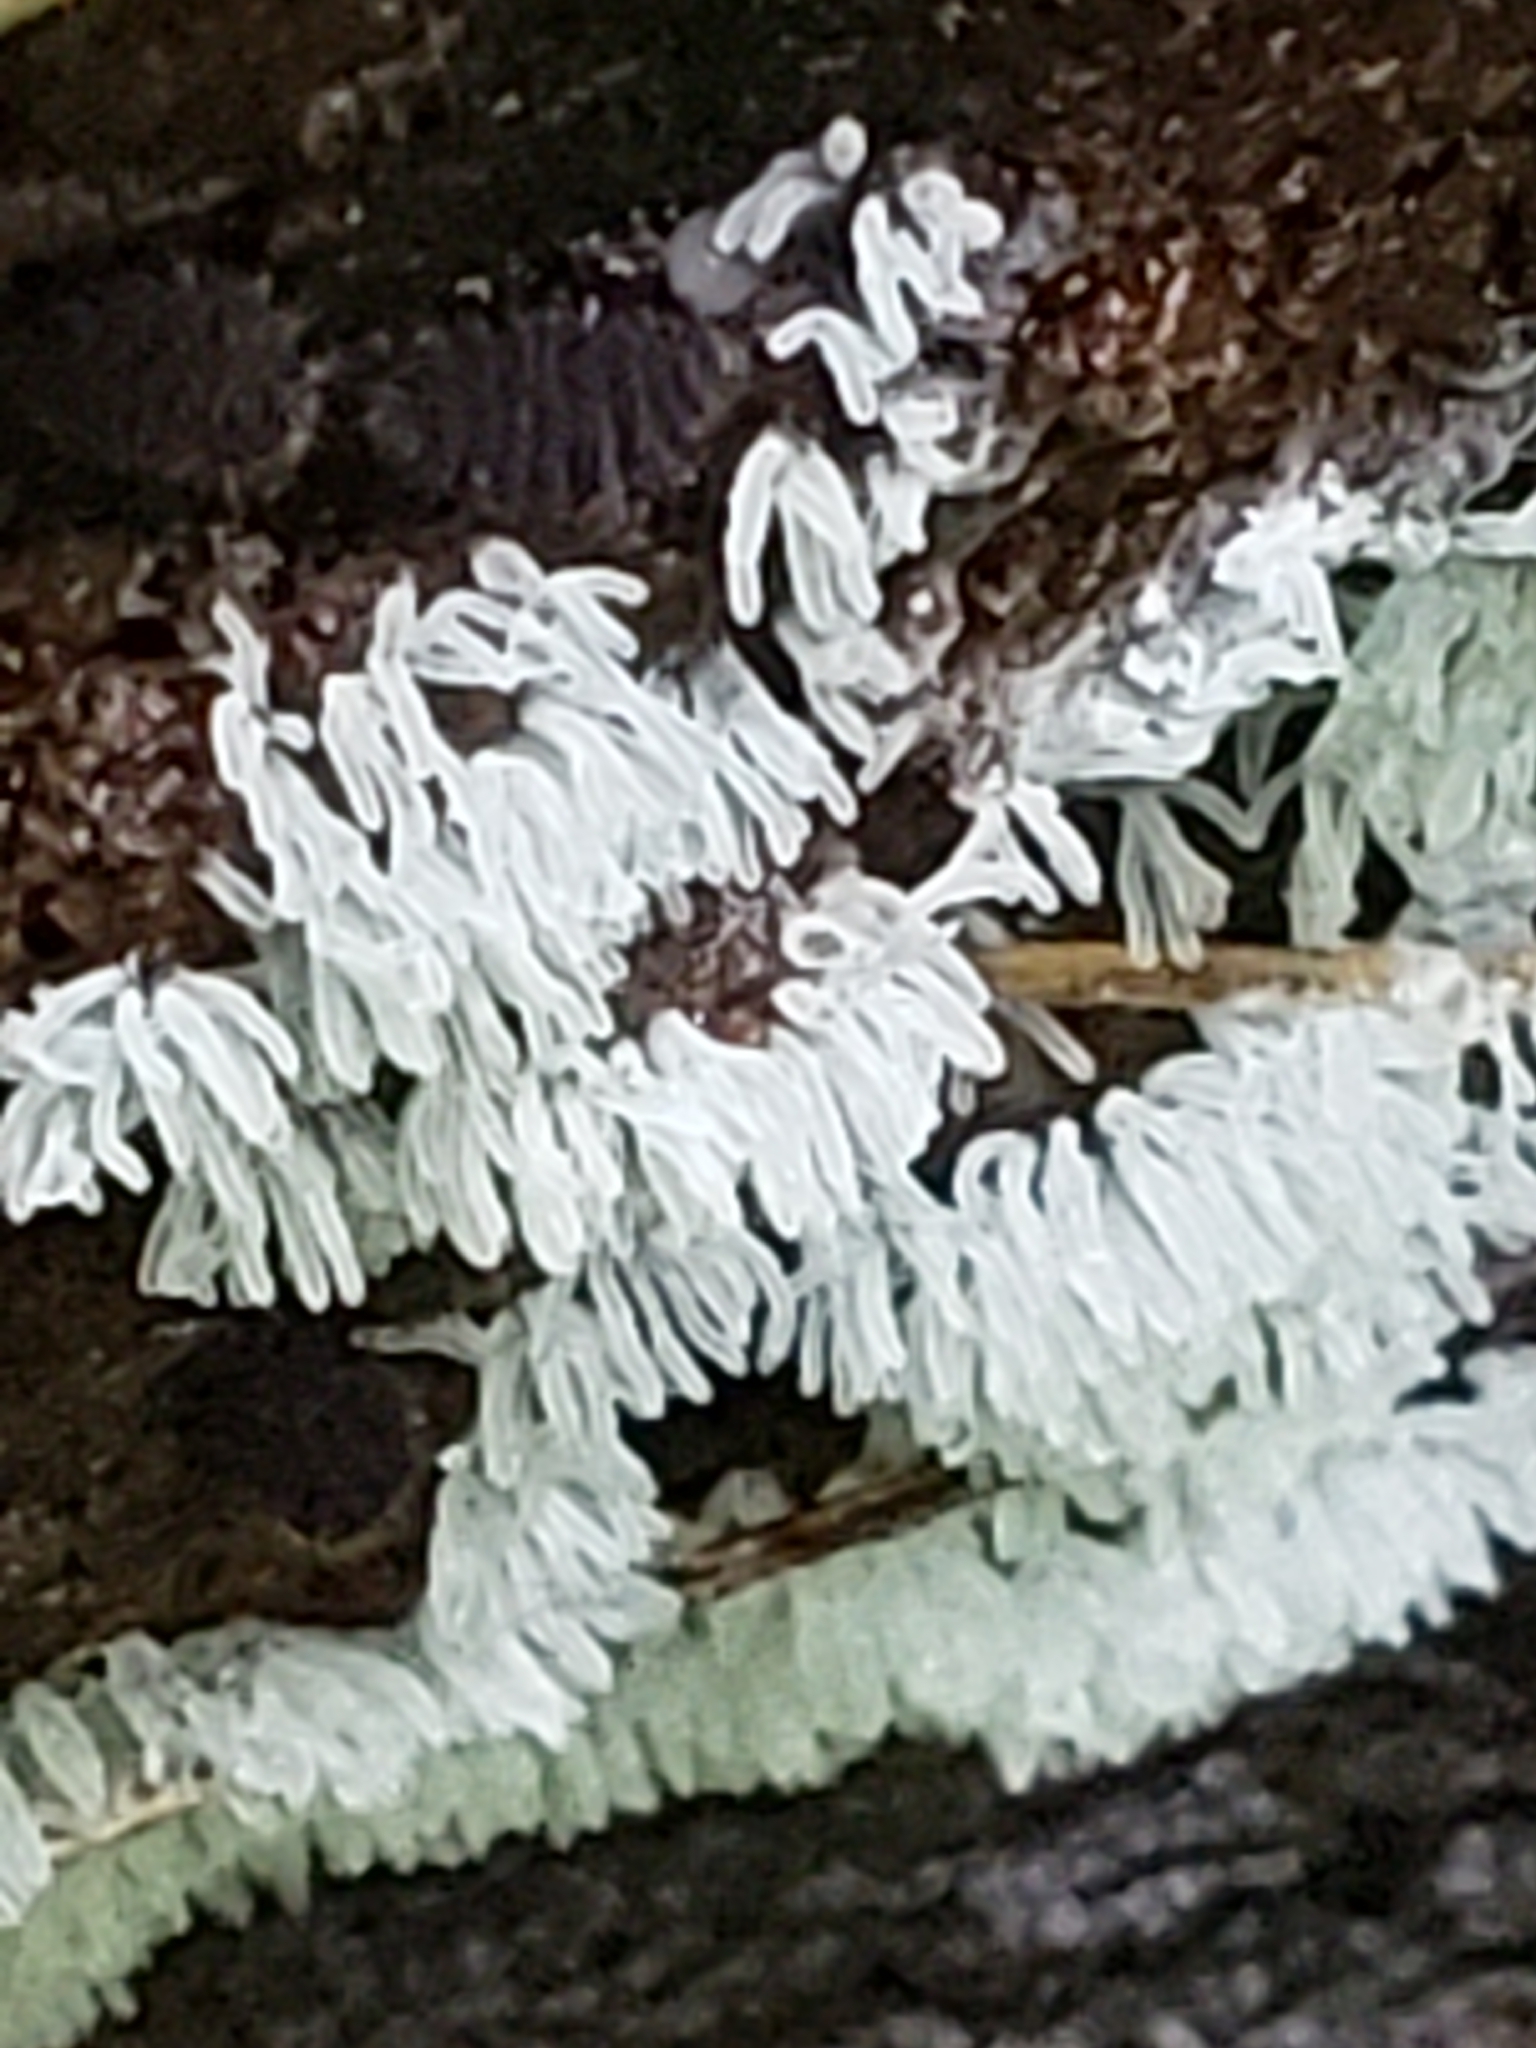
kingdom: Protozoa
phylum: Mycetozoa
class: Protosteliomycetes
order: Ceratiomyxales
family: Ceratiomyxaceae
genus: Ceratiomyxa
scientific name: Ceratiomyxa fruticulosa
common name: Honeycomb coral slime mold
